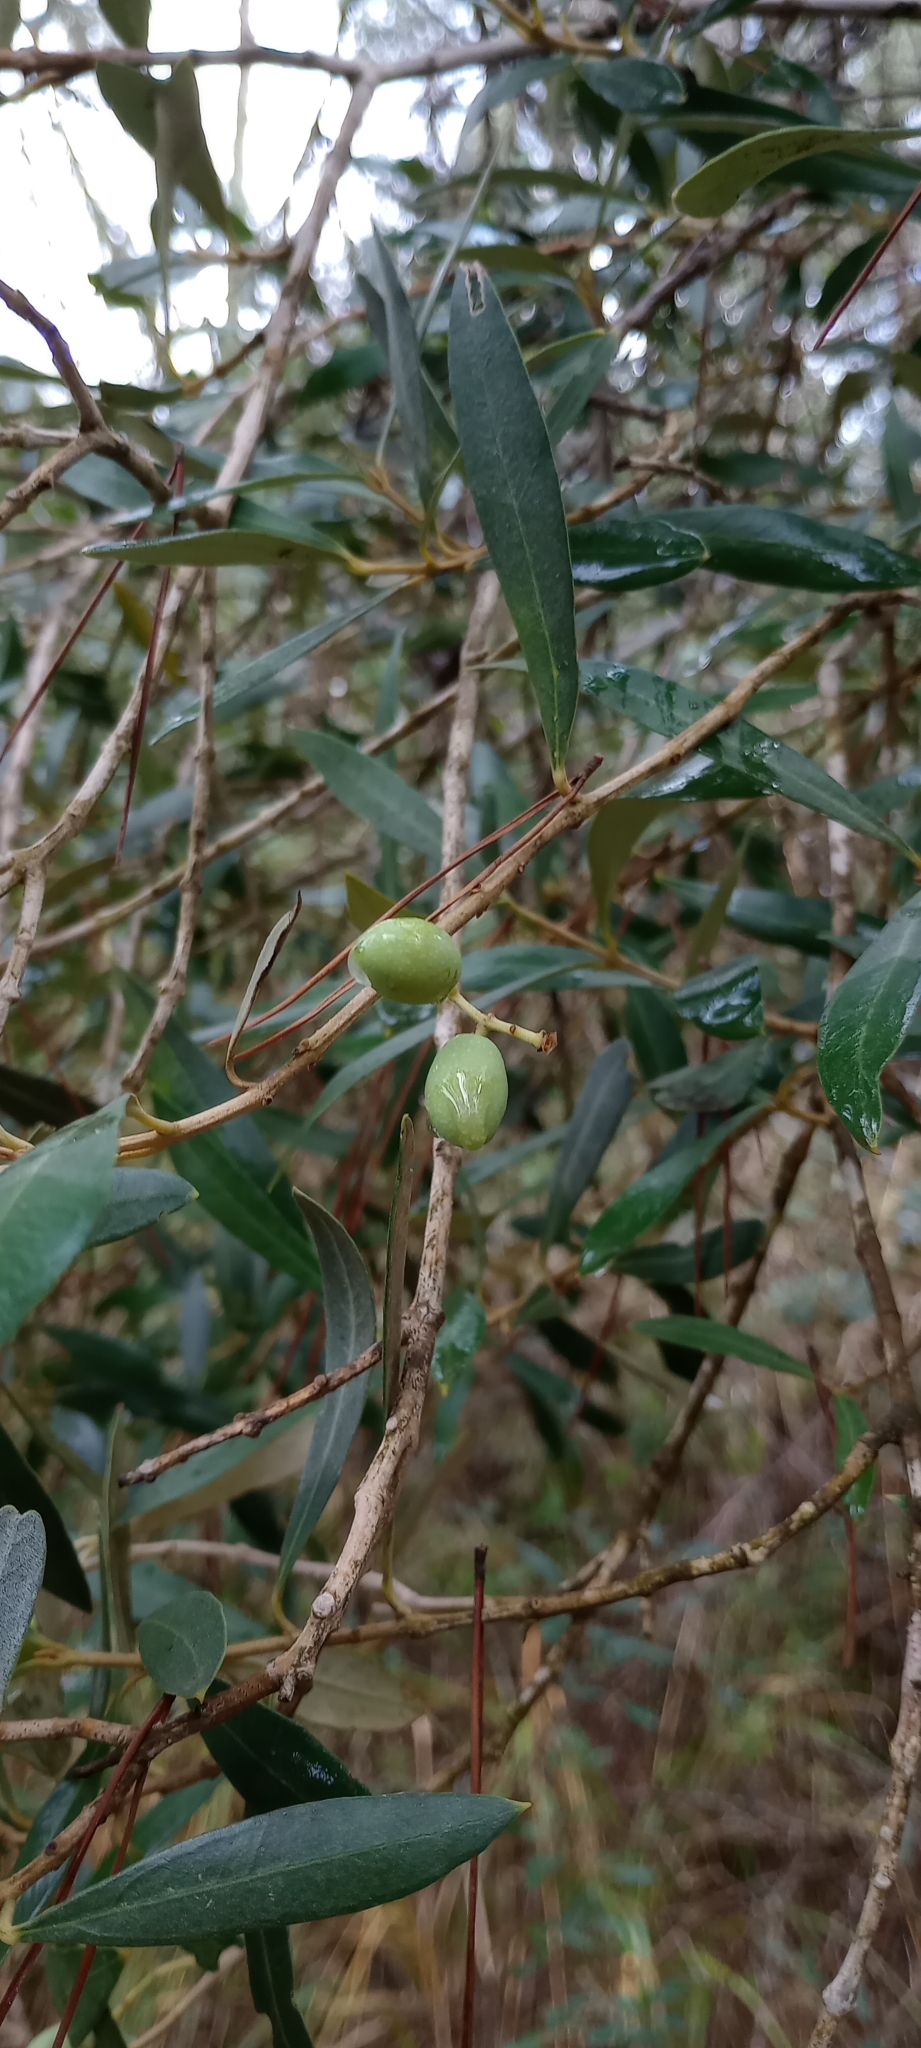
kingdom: Plantae
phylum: Tracheophyta
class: Magnoliopsida
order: Lamiales
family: Oleaceae
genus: Olea
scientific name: Olea europaea
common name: Olive
